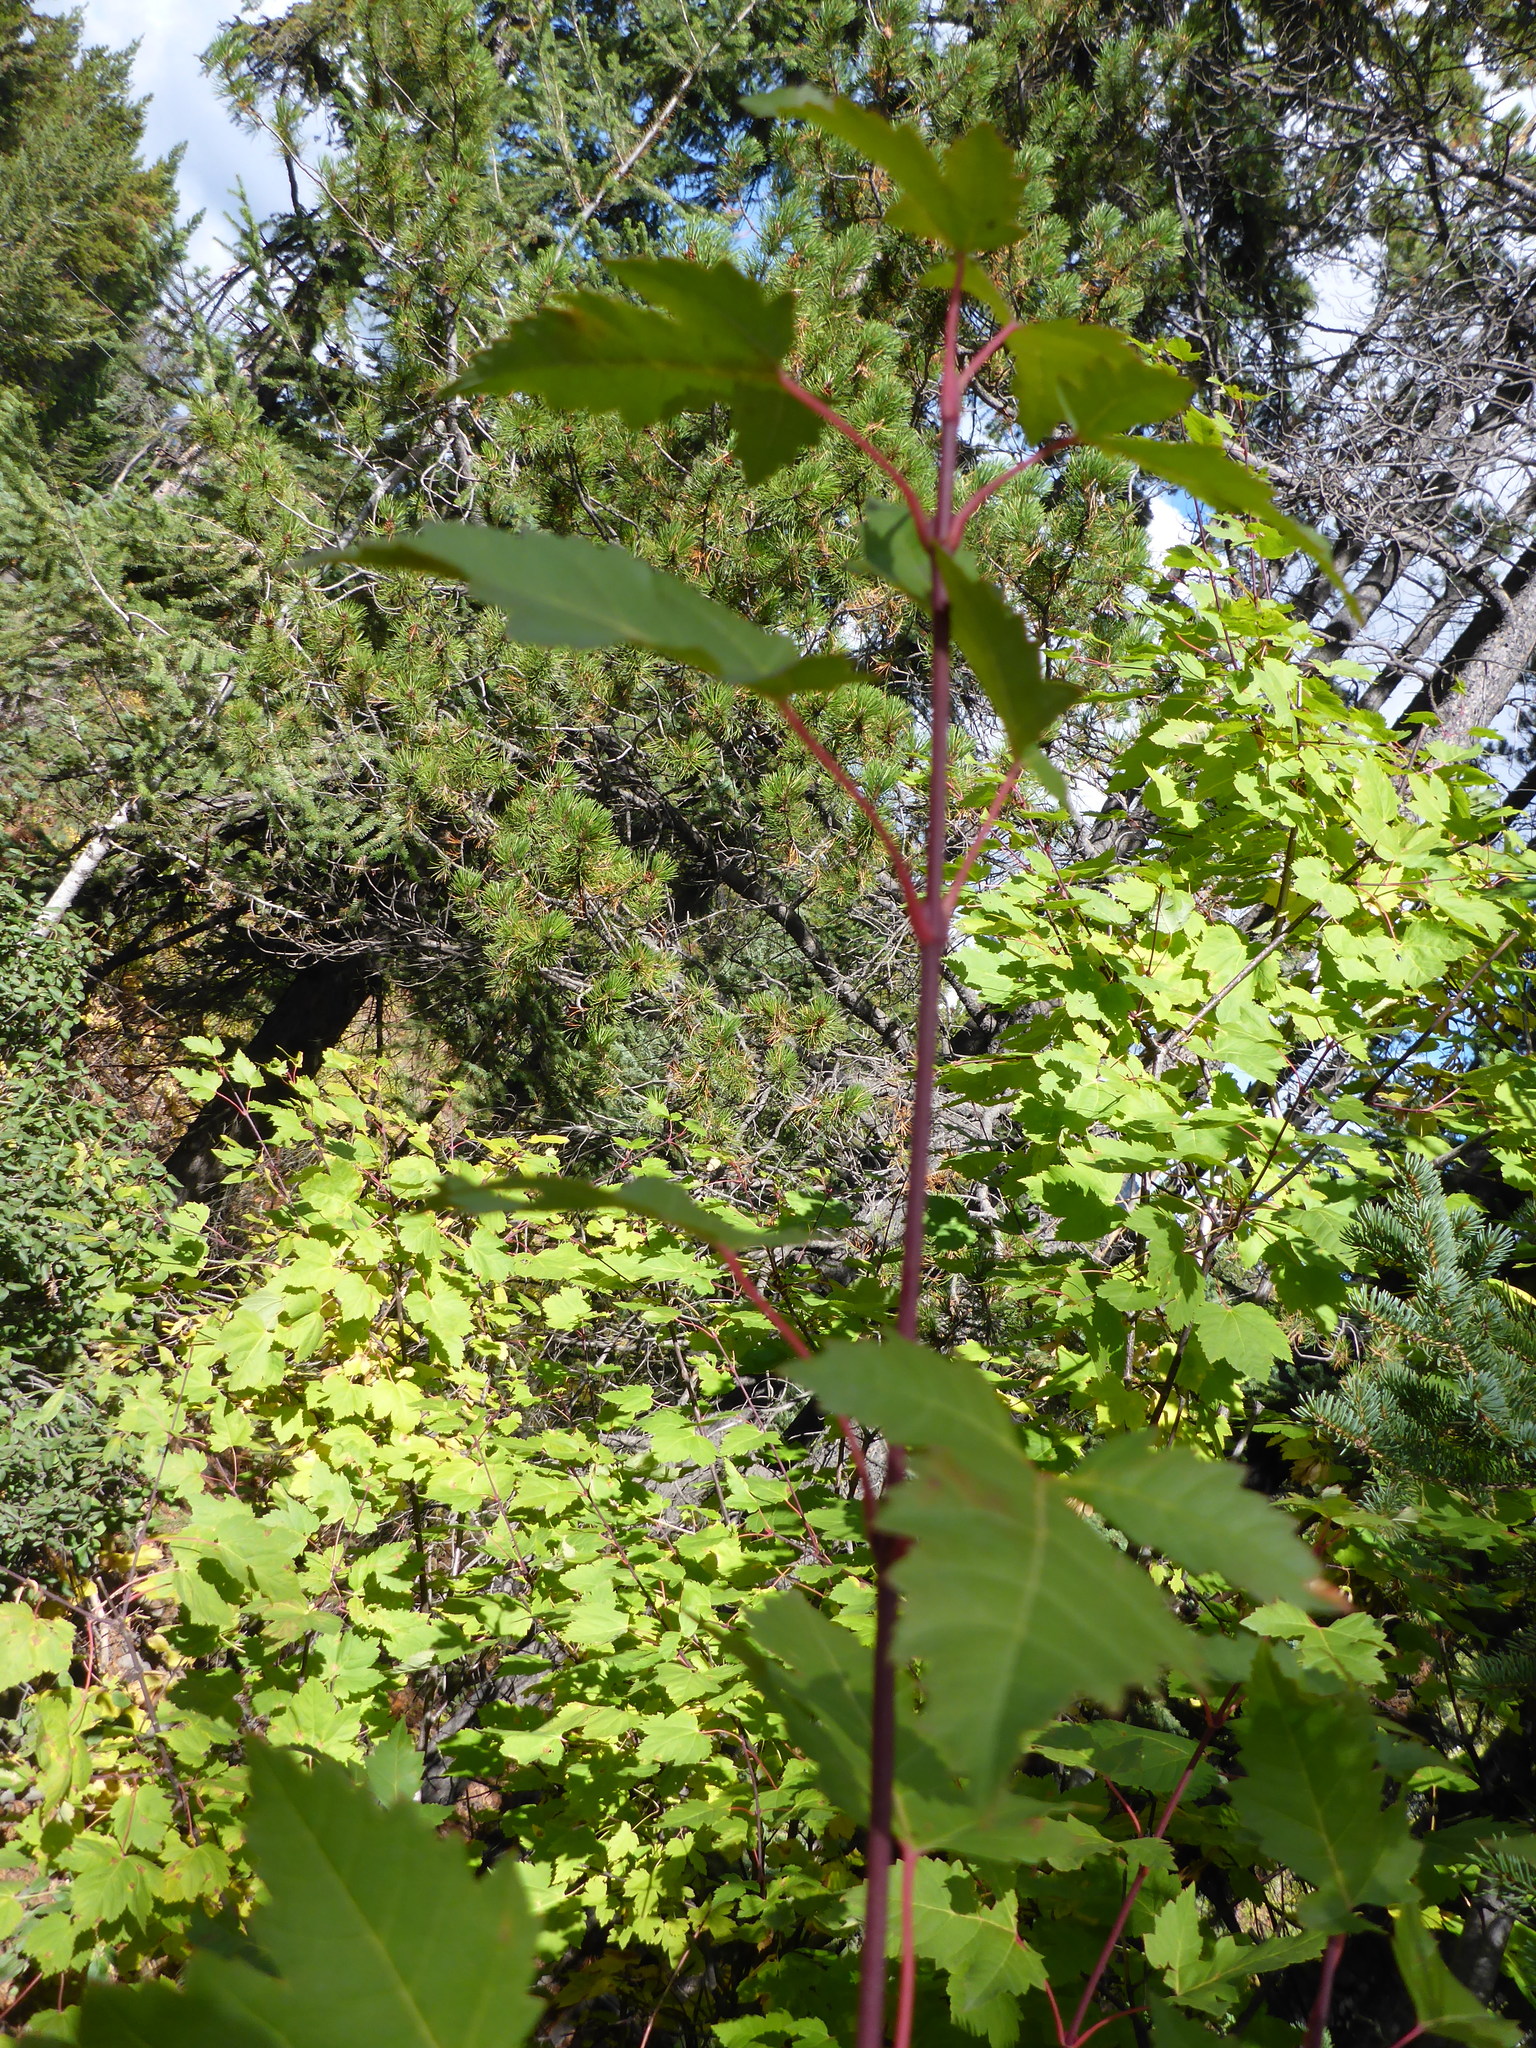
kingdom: Plantae
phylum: Tracheophyta
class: Magnoliopsida
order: Sapindales
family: Sapindaceae
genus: Acer
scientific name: Acer glabrum
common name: Rocky mountain maple
